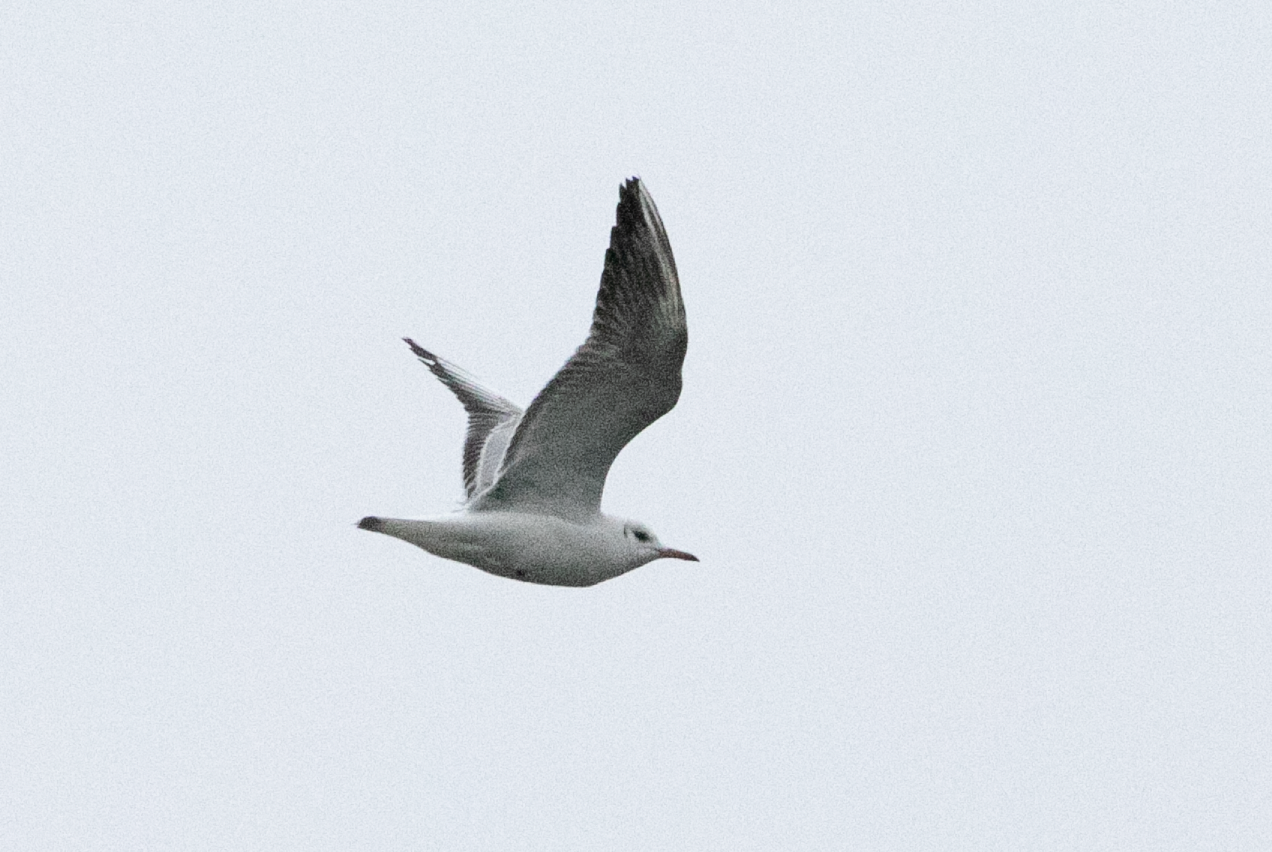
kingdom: Animalia
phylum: Chordata
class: Aves
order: Charadriiformes
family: Laridae
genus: Chroicocephalus
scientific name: Chroicocephalus ridibundus
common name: Black-headed gull
